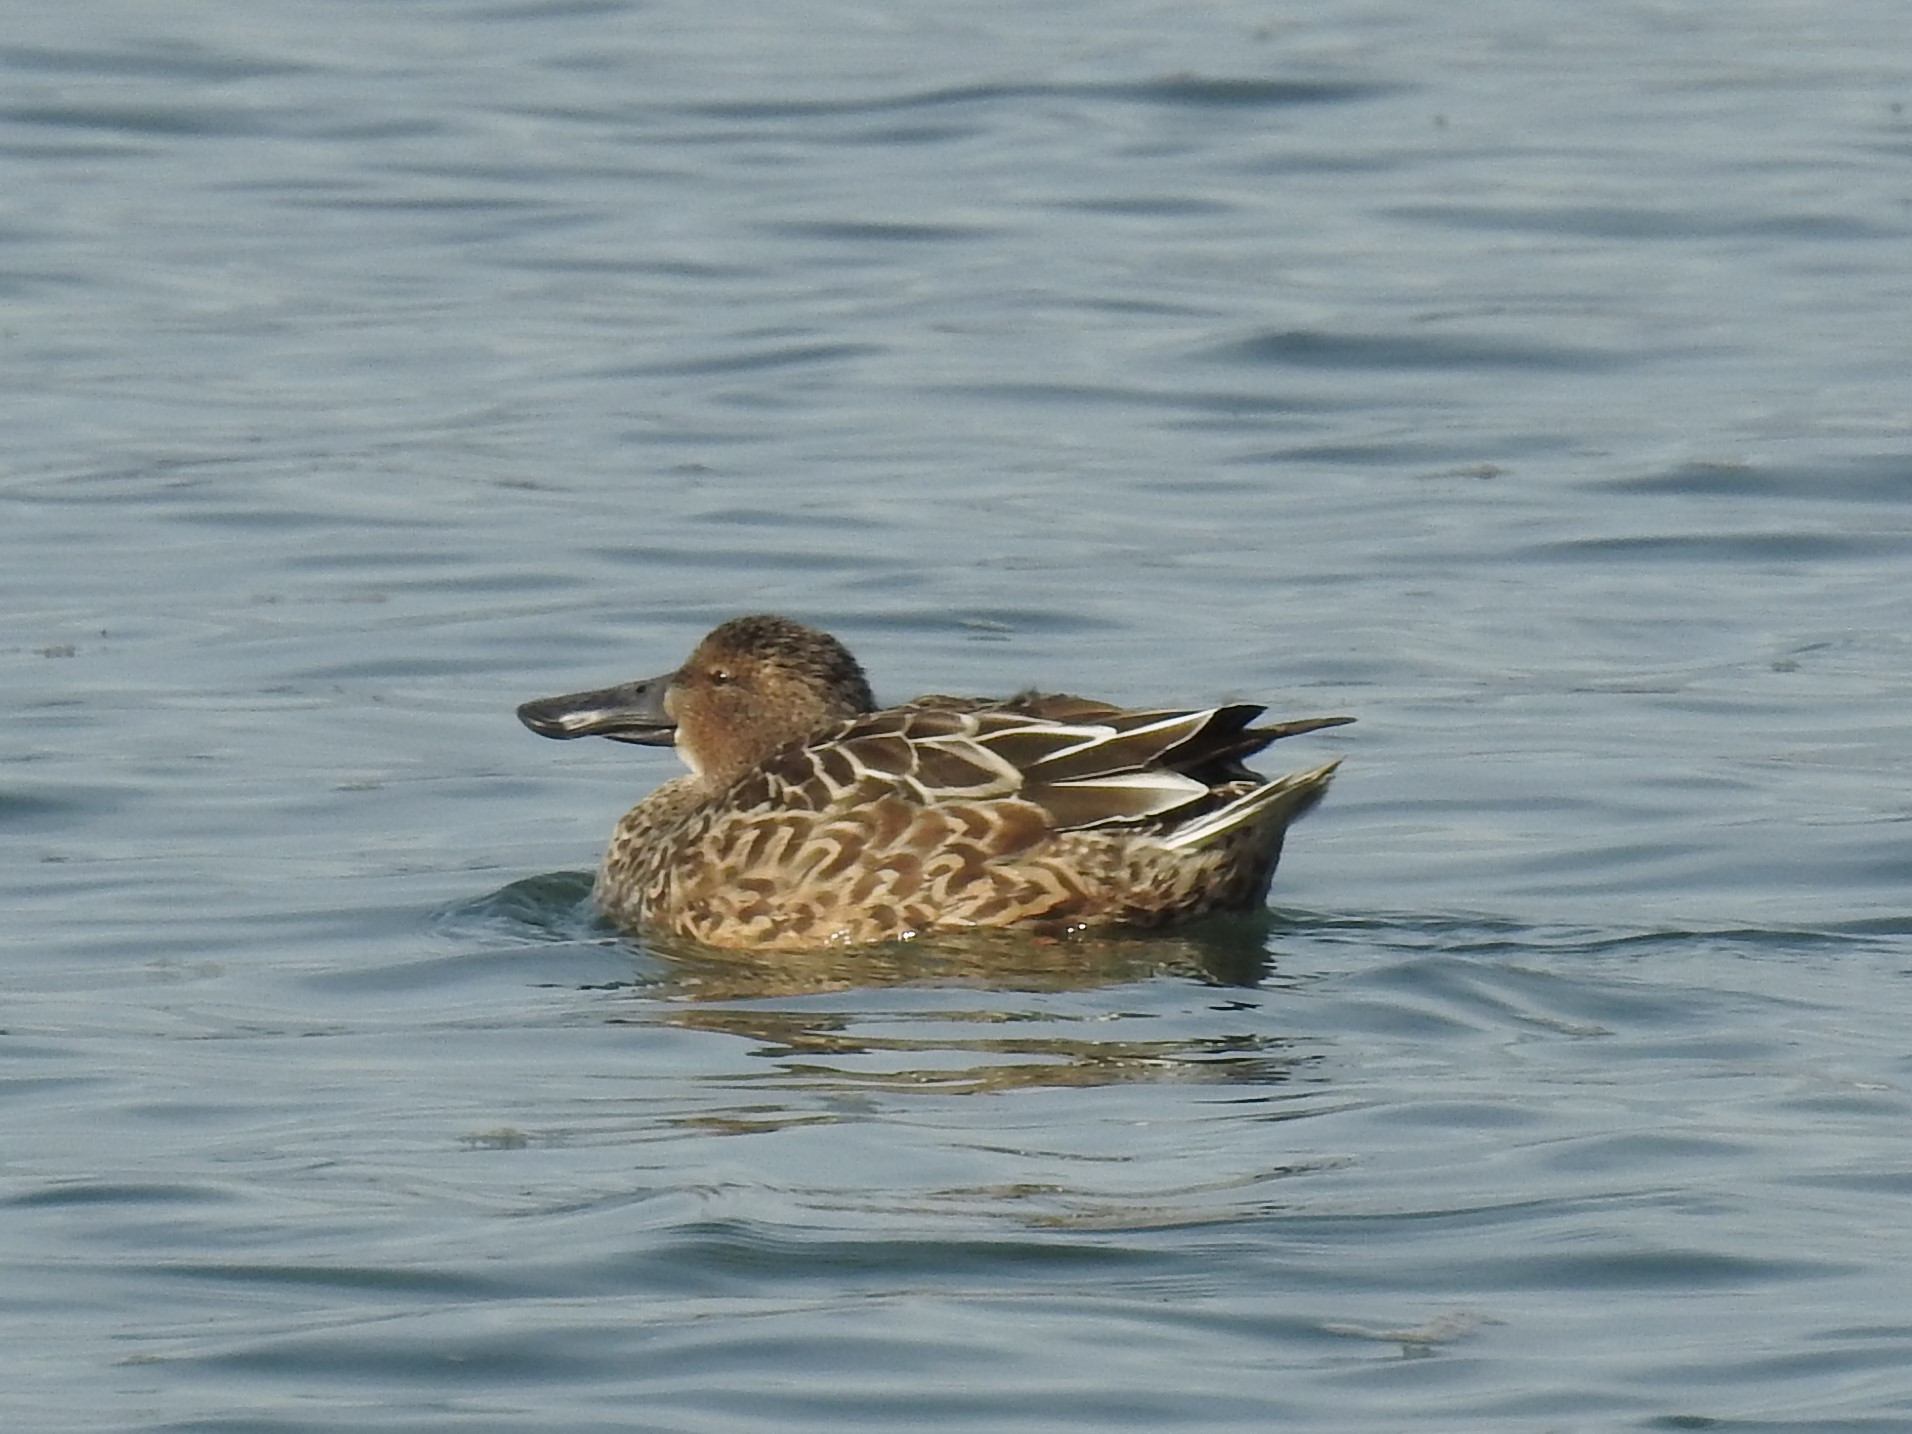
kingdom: Animalia
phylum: Chordata
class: Aves
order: Anseriformes
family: Anatidae
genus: Spatula
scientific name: Spatula clypeata
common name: Northern shoveler
